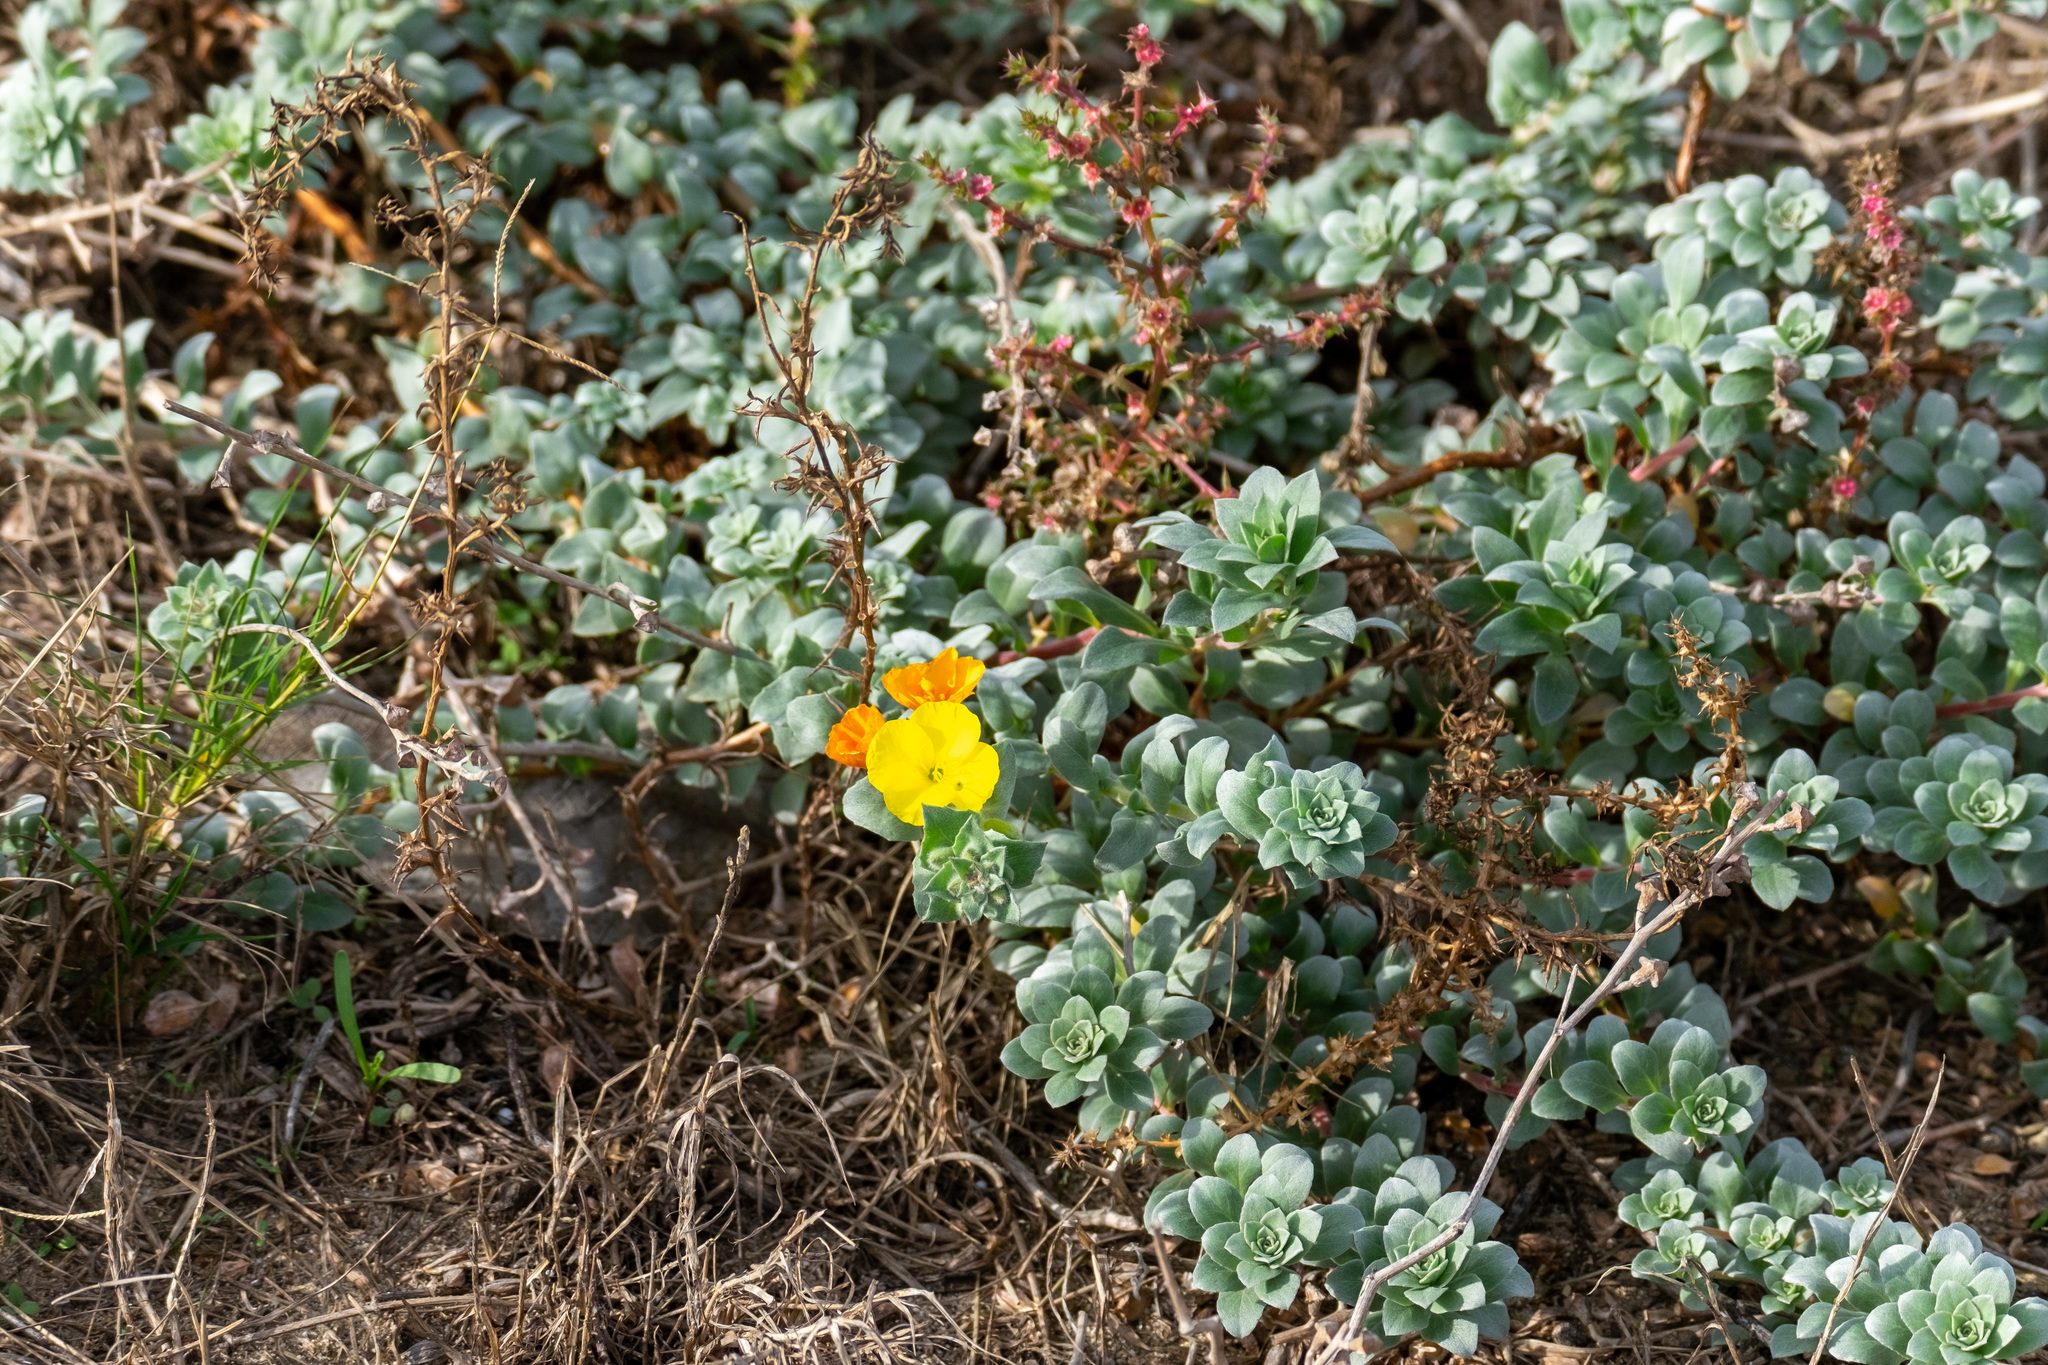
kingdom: Plantae
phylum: Tracheophyta
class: Magnoliopsida
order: Myrtales
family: Onagraceae
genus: Camissoniopsis
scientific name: Camissoniopsis cheiranthifolia
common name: Beach suncup
